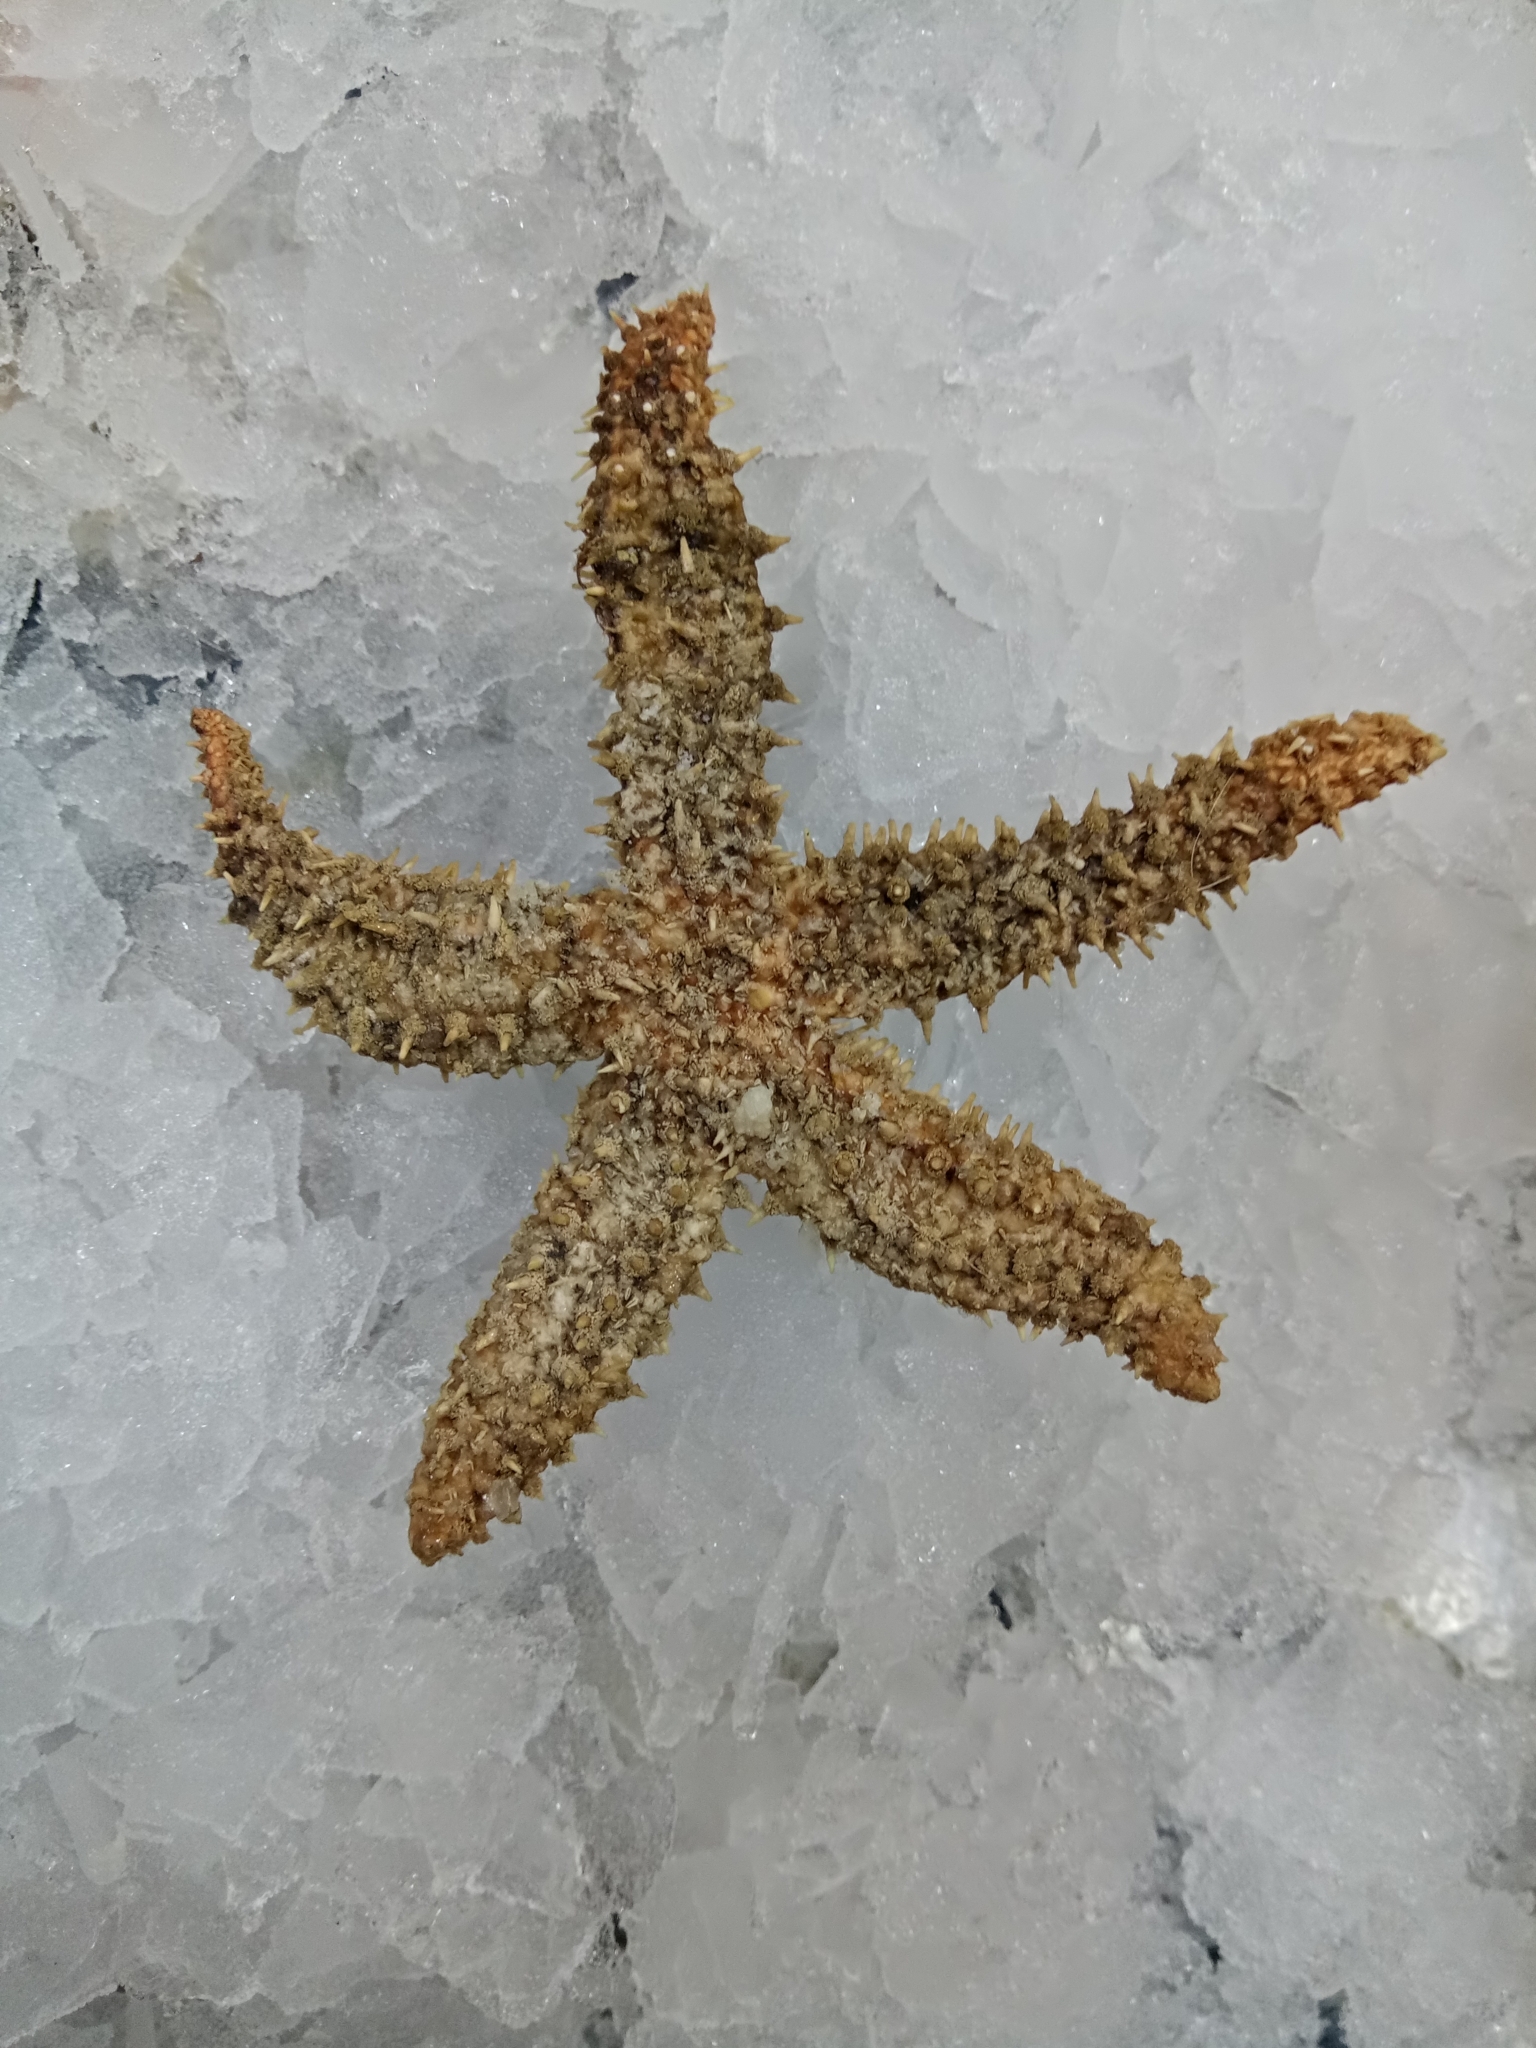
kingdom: Animalia
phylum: Echinodermata
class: Asteroidea
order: Forcipulatida
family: Asteriidae
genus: Marthasterias
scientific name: Marthasterias glacialis
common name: Spiny starfish
